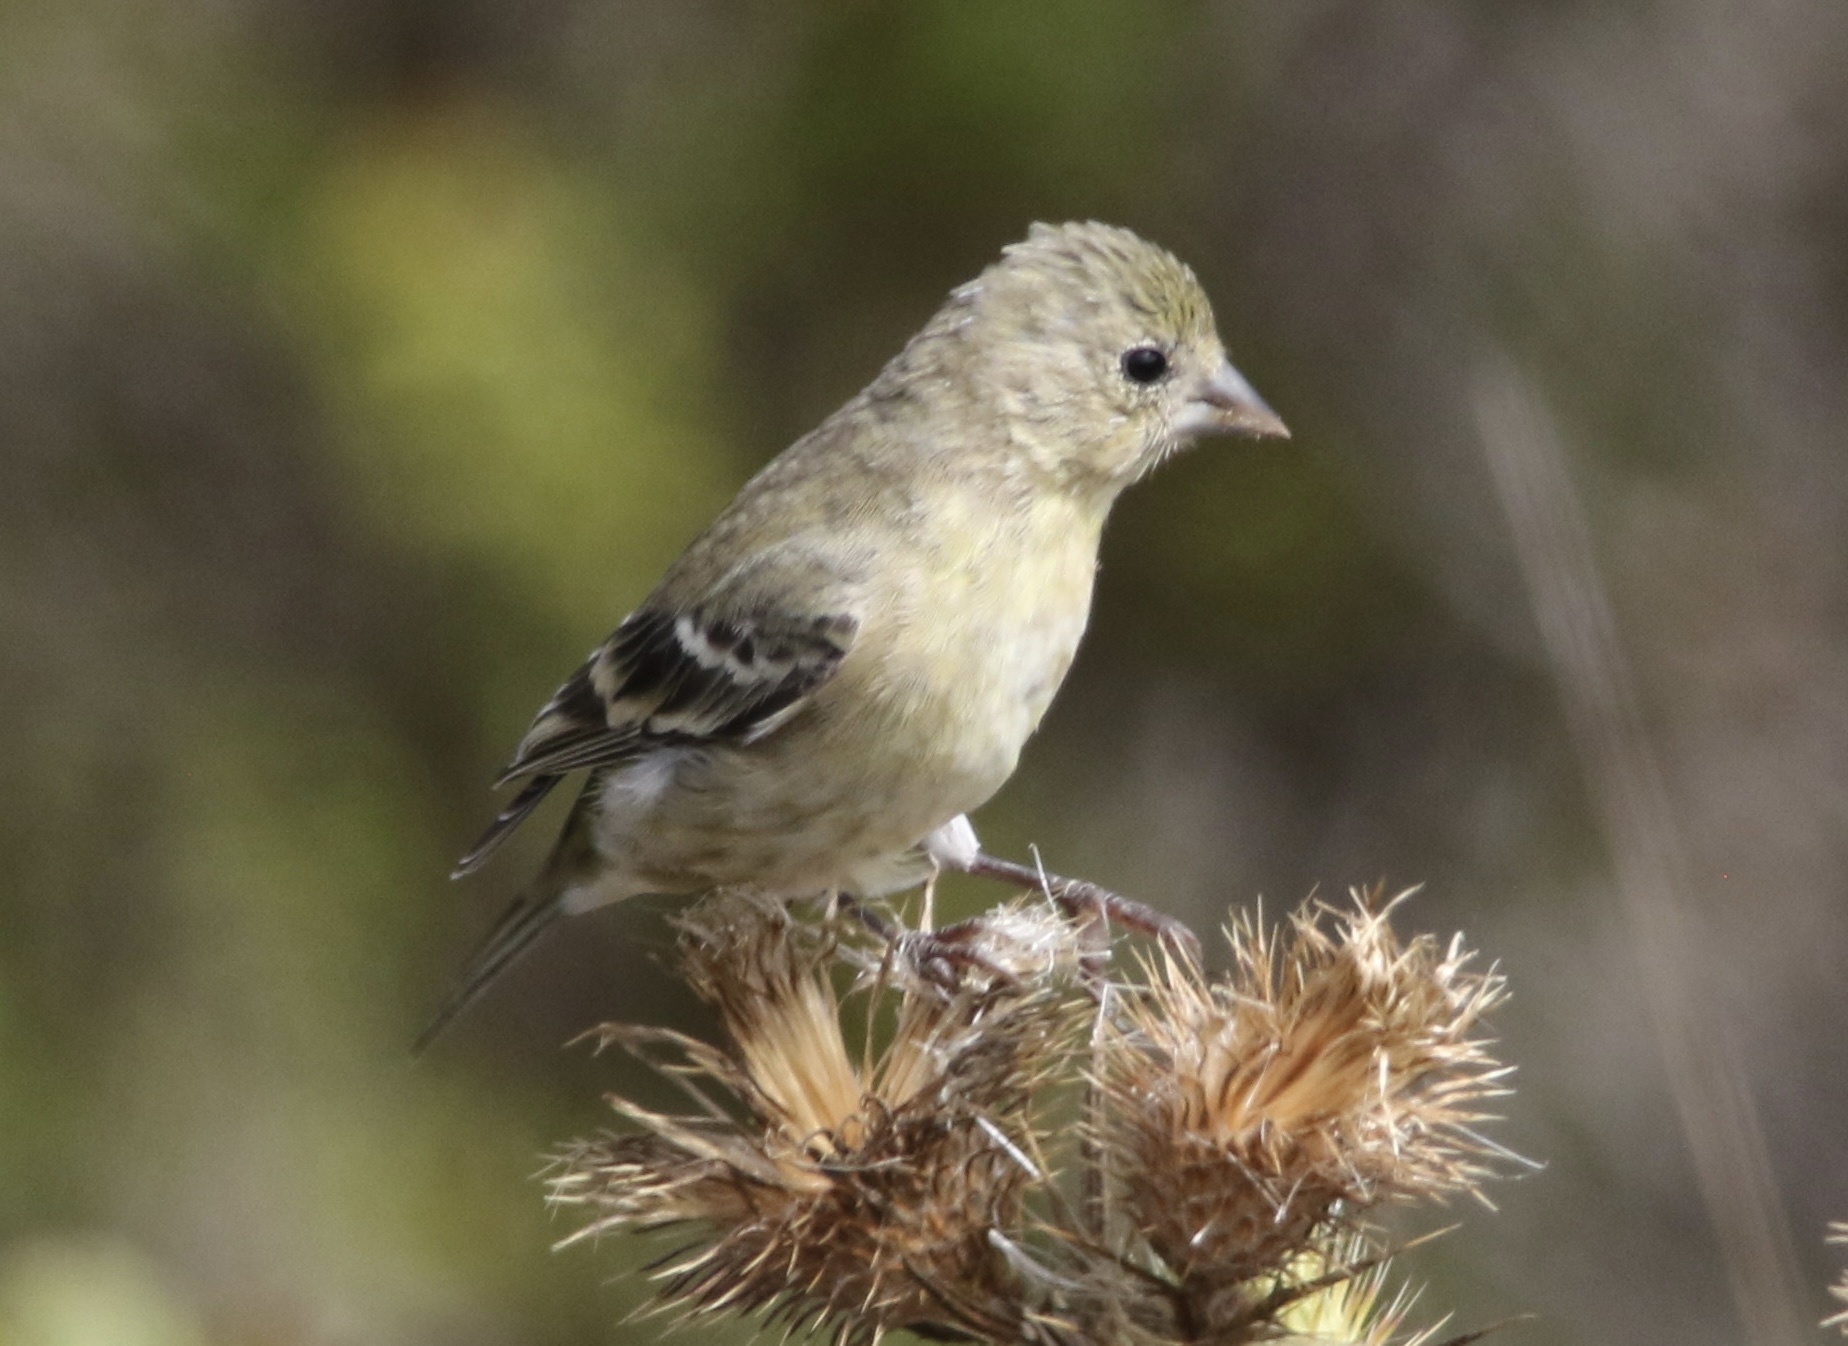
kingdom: Animalia
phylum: Chordata
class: Aves
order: Passeriformes
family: Fringillidae
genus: Spinus
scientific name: Spinus psaltria
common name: Lesser goldfinch
